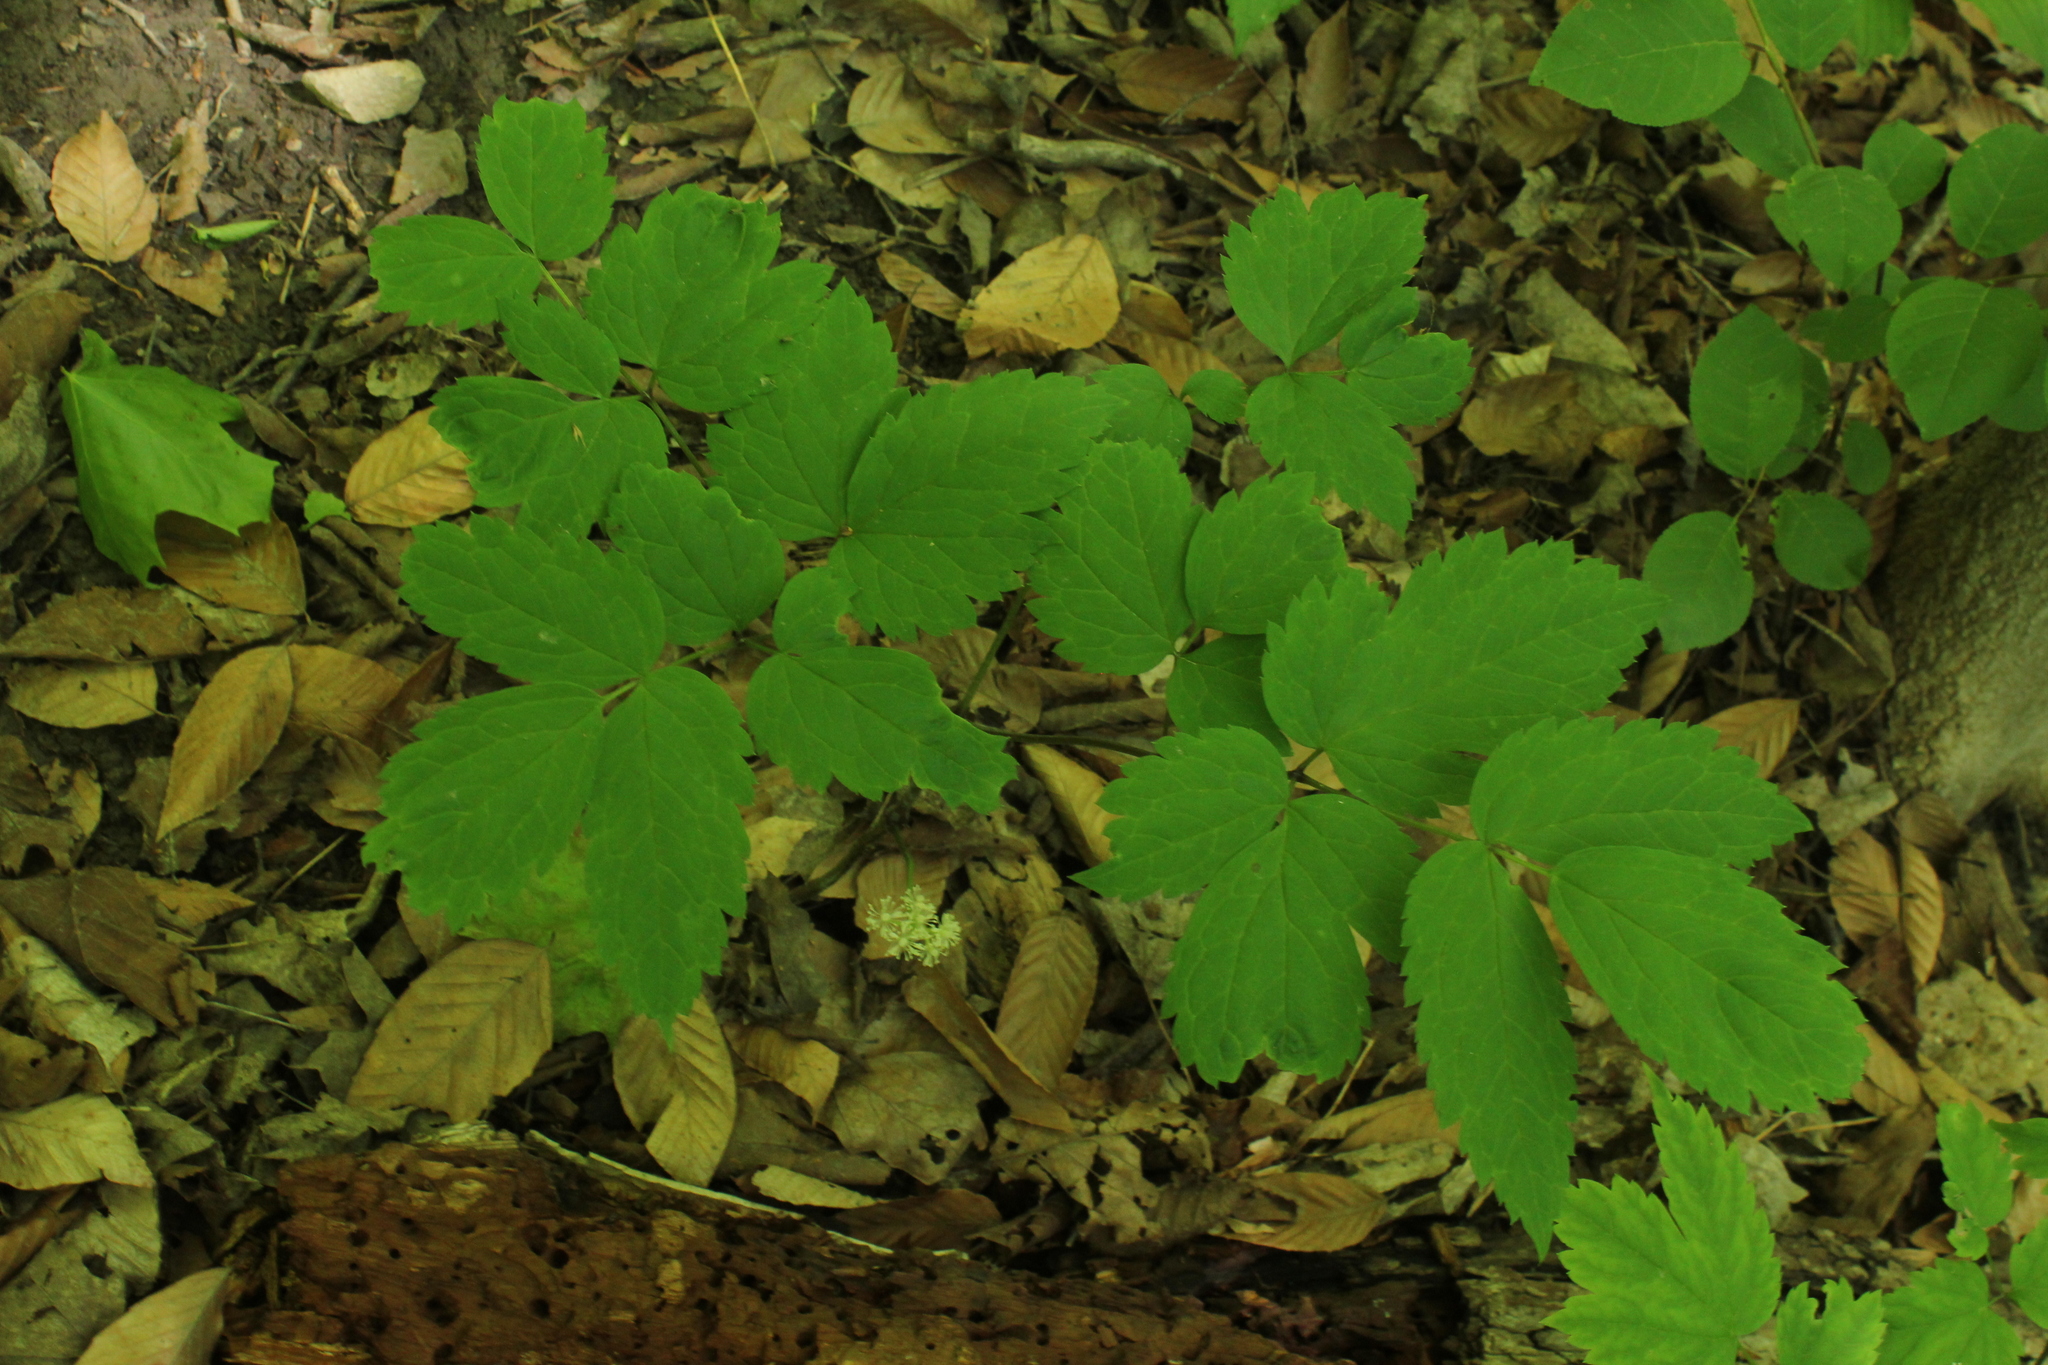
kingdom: Plantae
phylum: Tracheophyta
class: Magnoliopsida
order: Ranunculales
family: Ranunculaceae
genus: Actaea
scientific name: Actaea pachypoda
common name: Doll's-eyes
